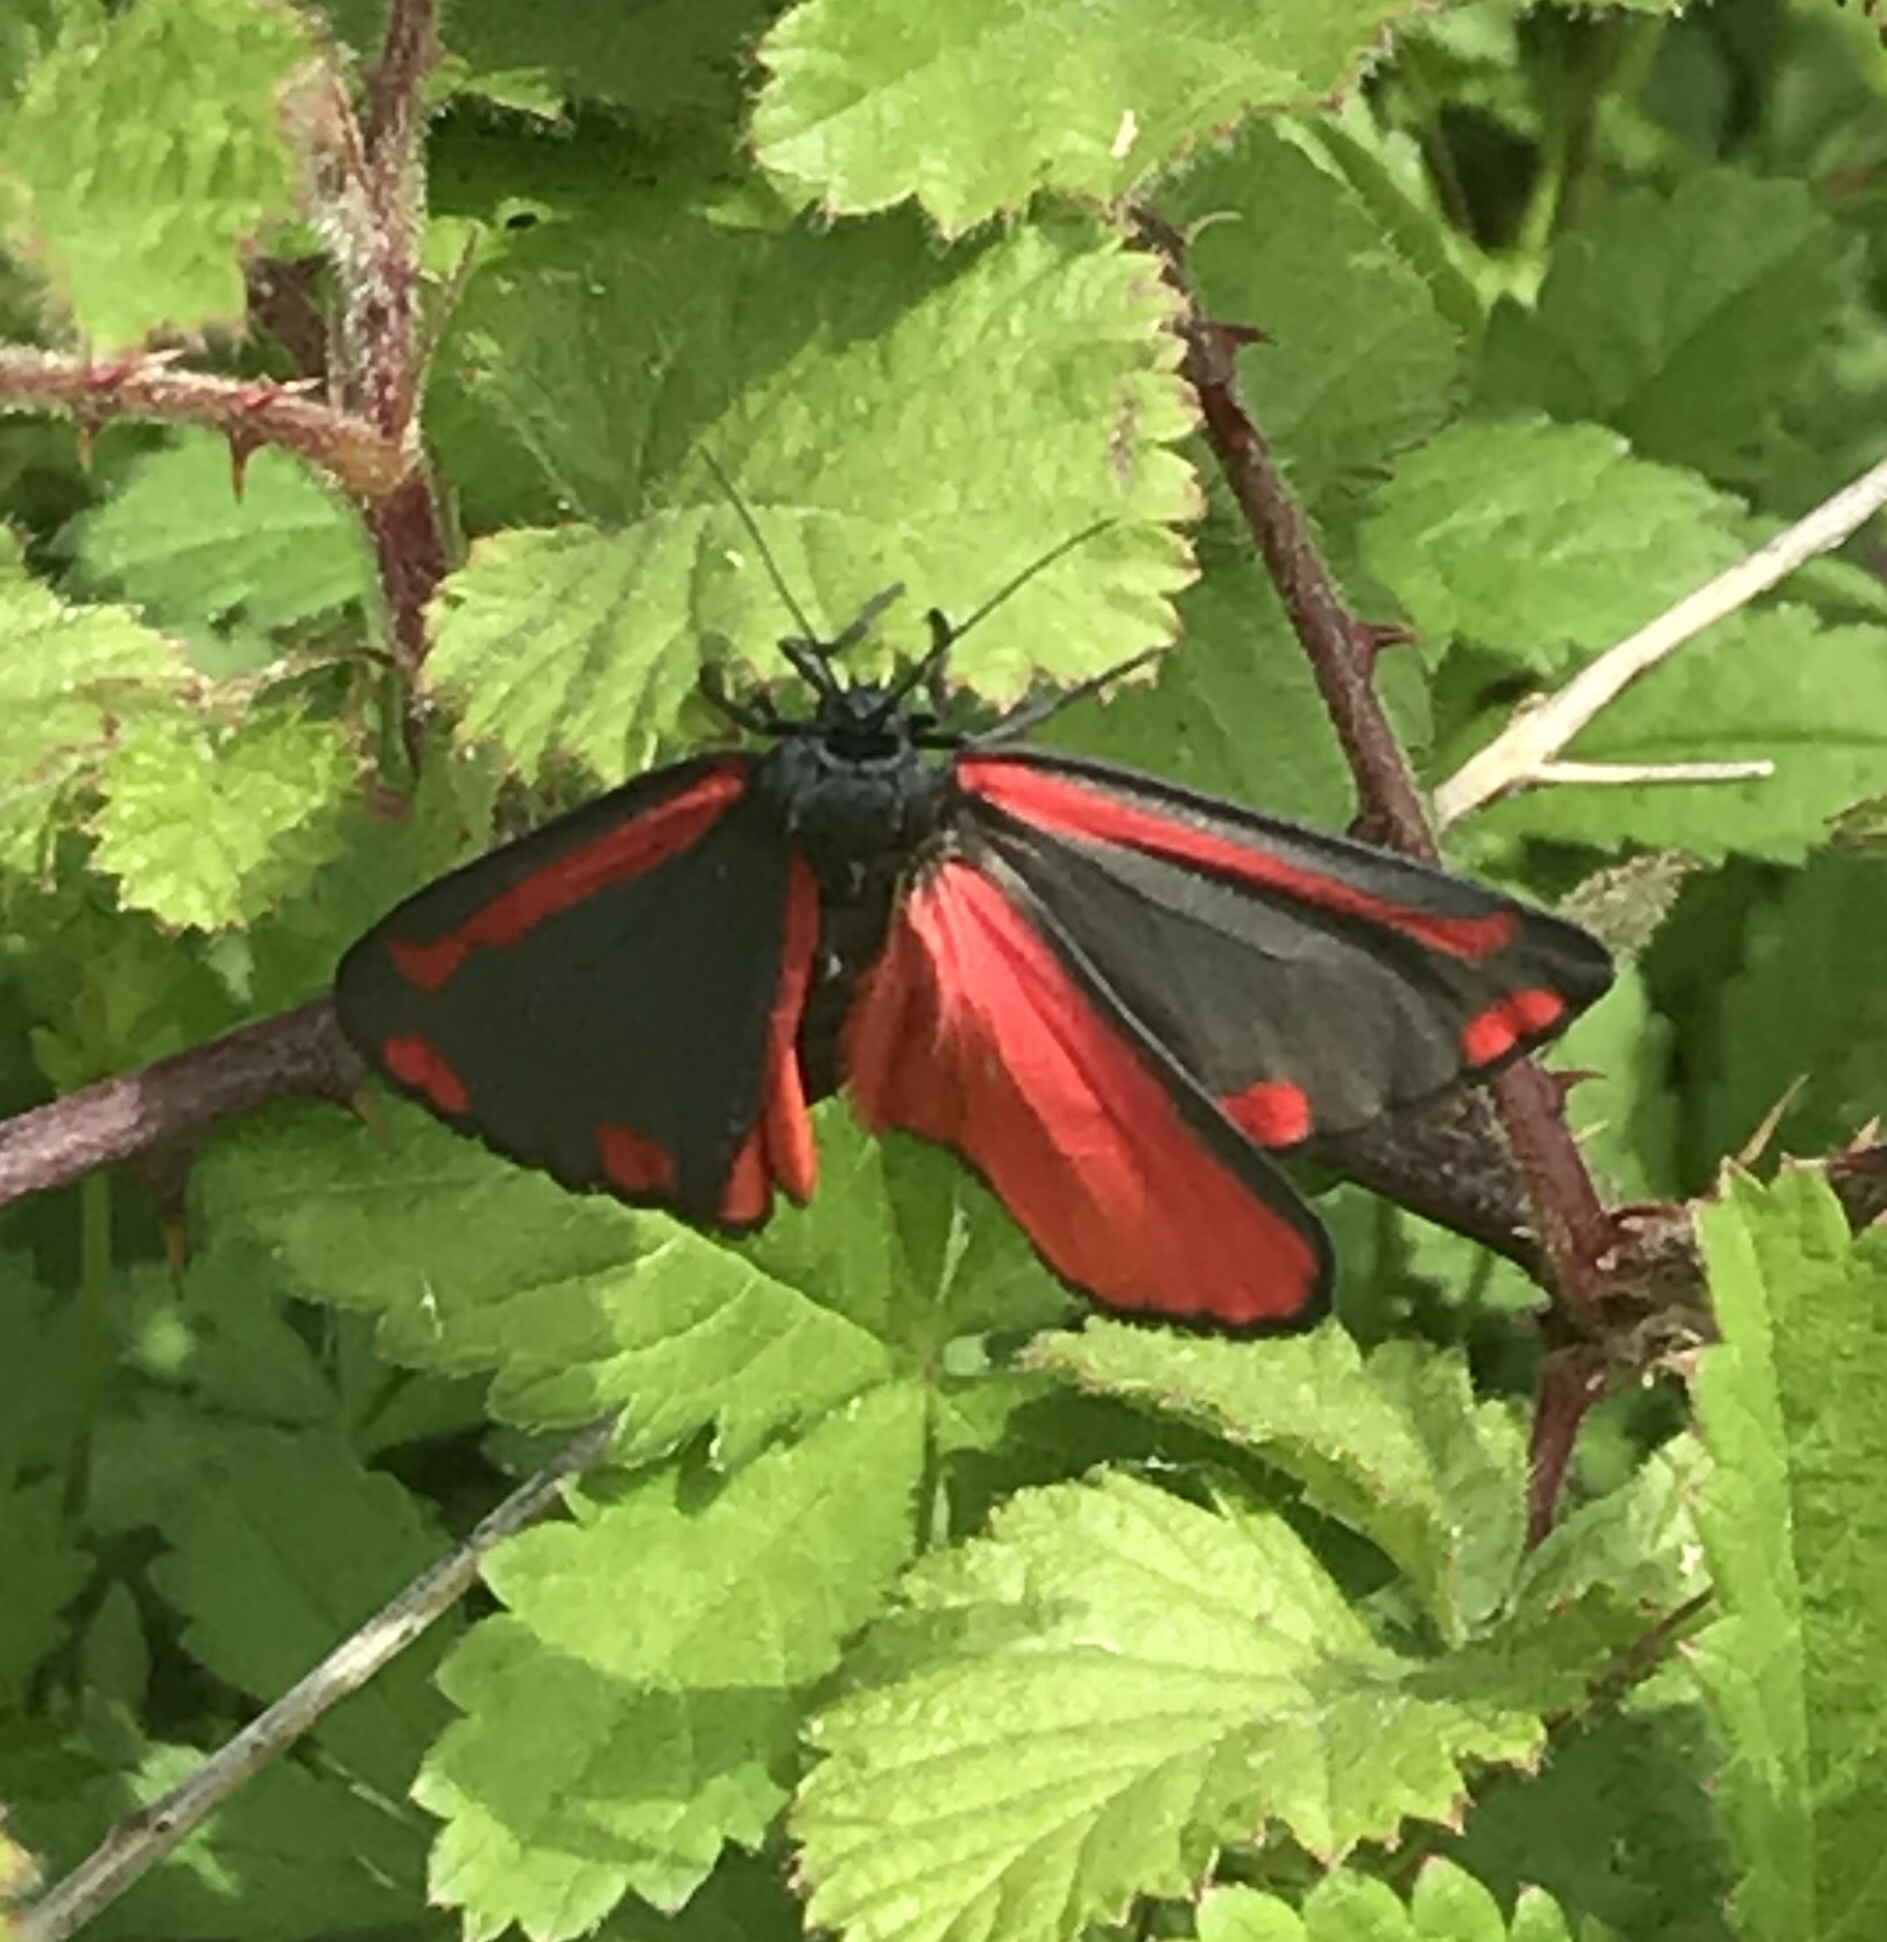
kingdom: Animalia
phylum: Arthropoda
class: Insecta
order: Lepidoptera
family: Erebidae
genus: Tyria
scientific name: Tyria jacobaeae
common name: Cinnabar
